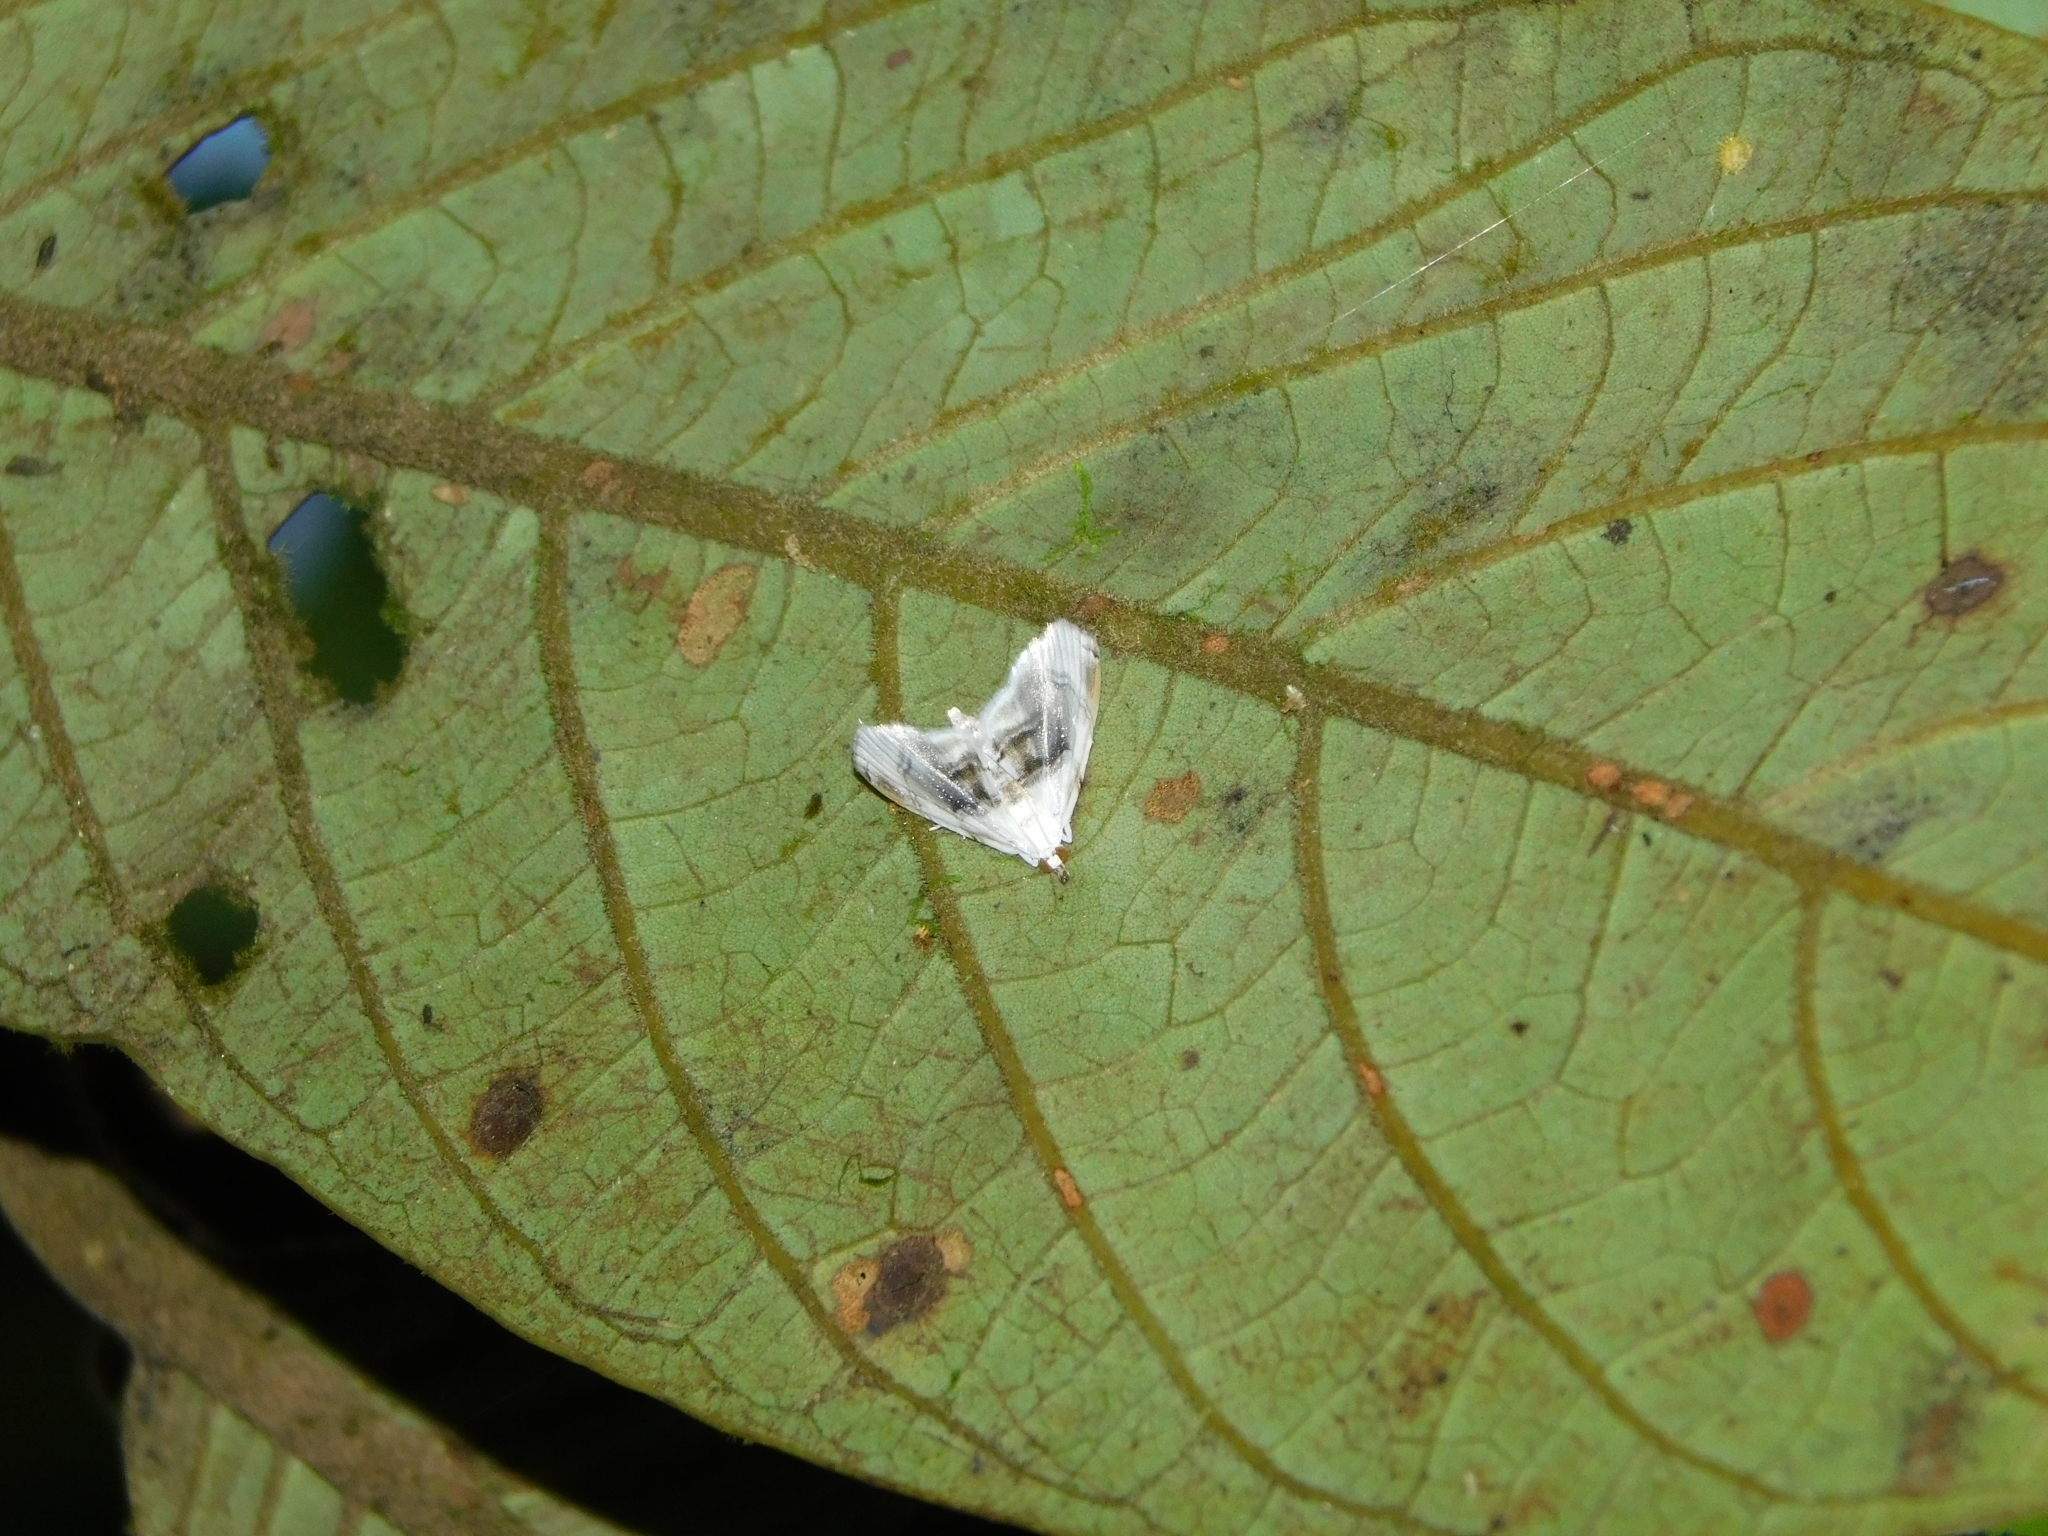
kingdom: Animalia
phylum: Arthropoda
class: Insecta
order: Lepidoptera
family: Crambidae
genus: Trichophysetis
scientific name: Trichophysetis duplifascialis
